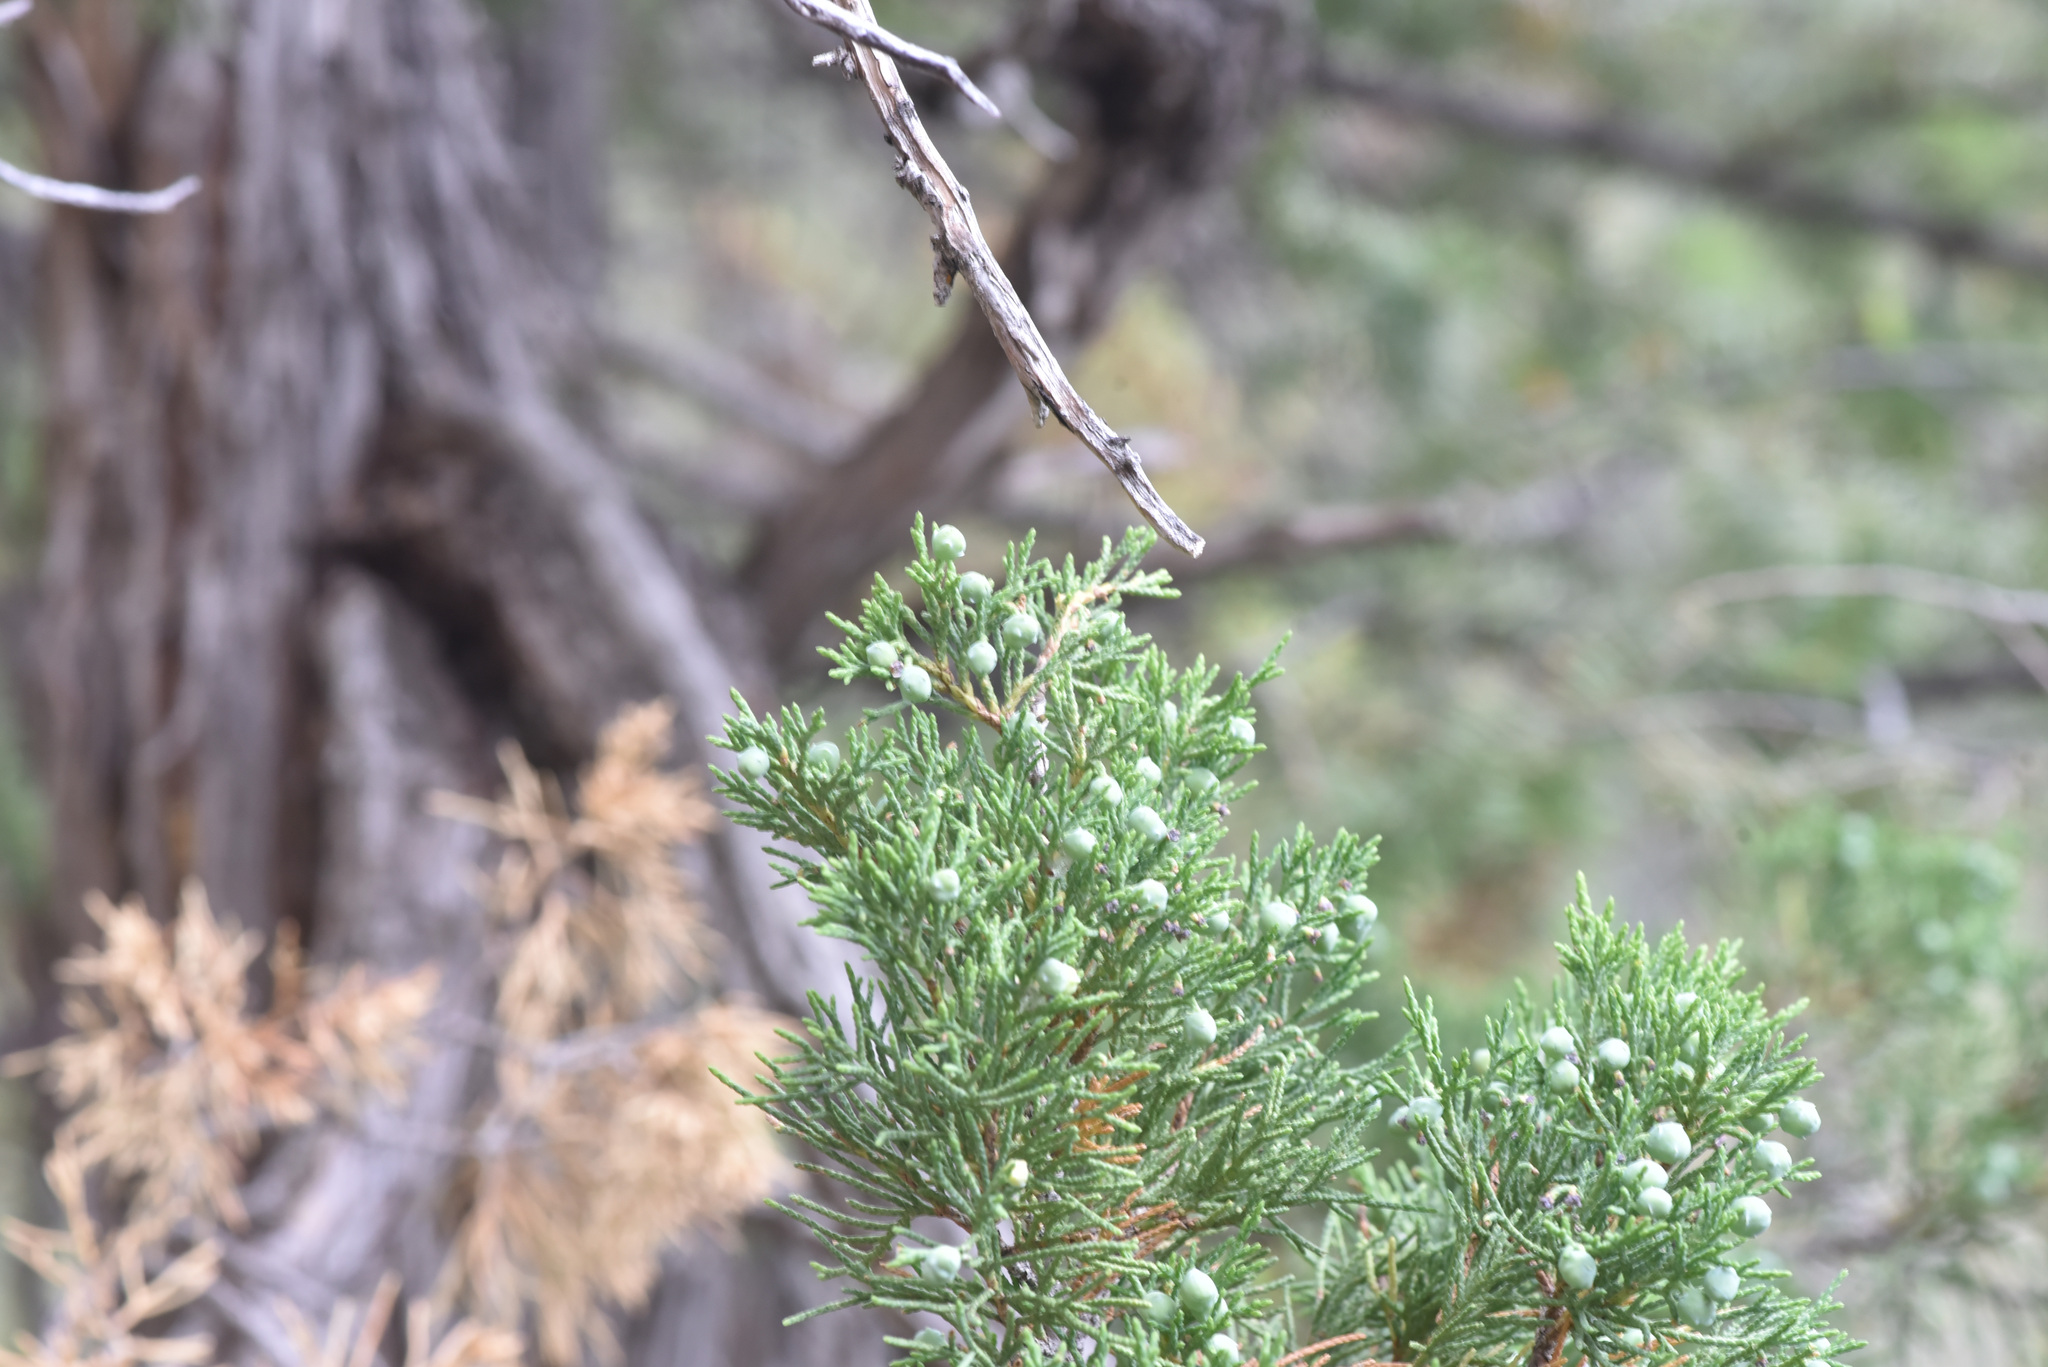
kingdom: Plantae
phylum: Tracheophyta
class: Pinopsida
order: Pinales
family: Cupressaceae
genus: Juniperus
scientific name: Juniperus scopulorum
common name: Rocky mountain juniper
